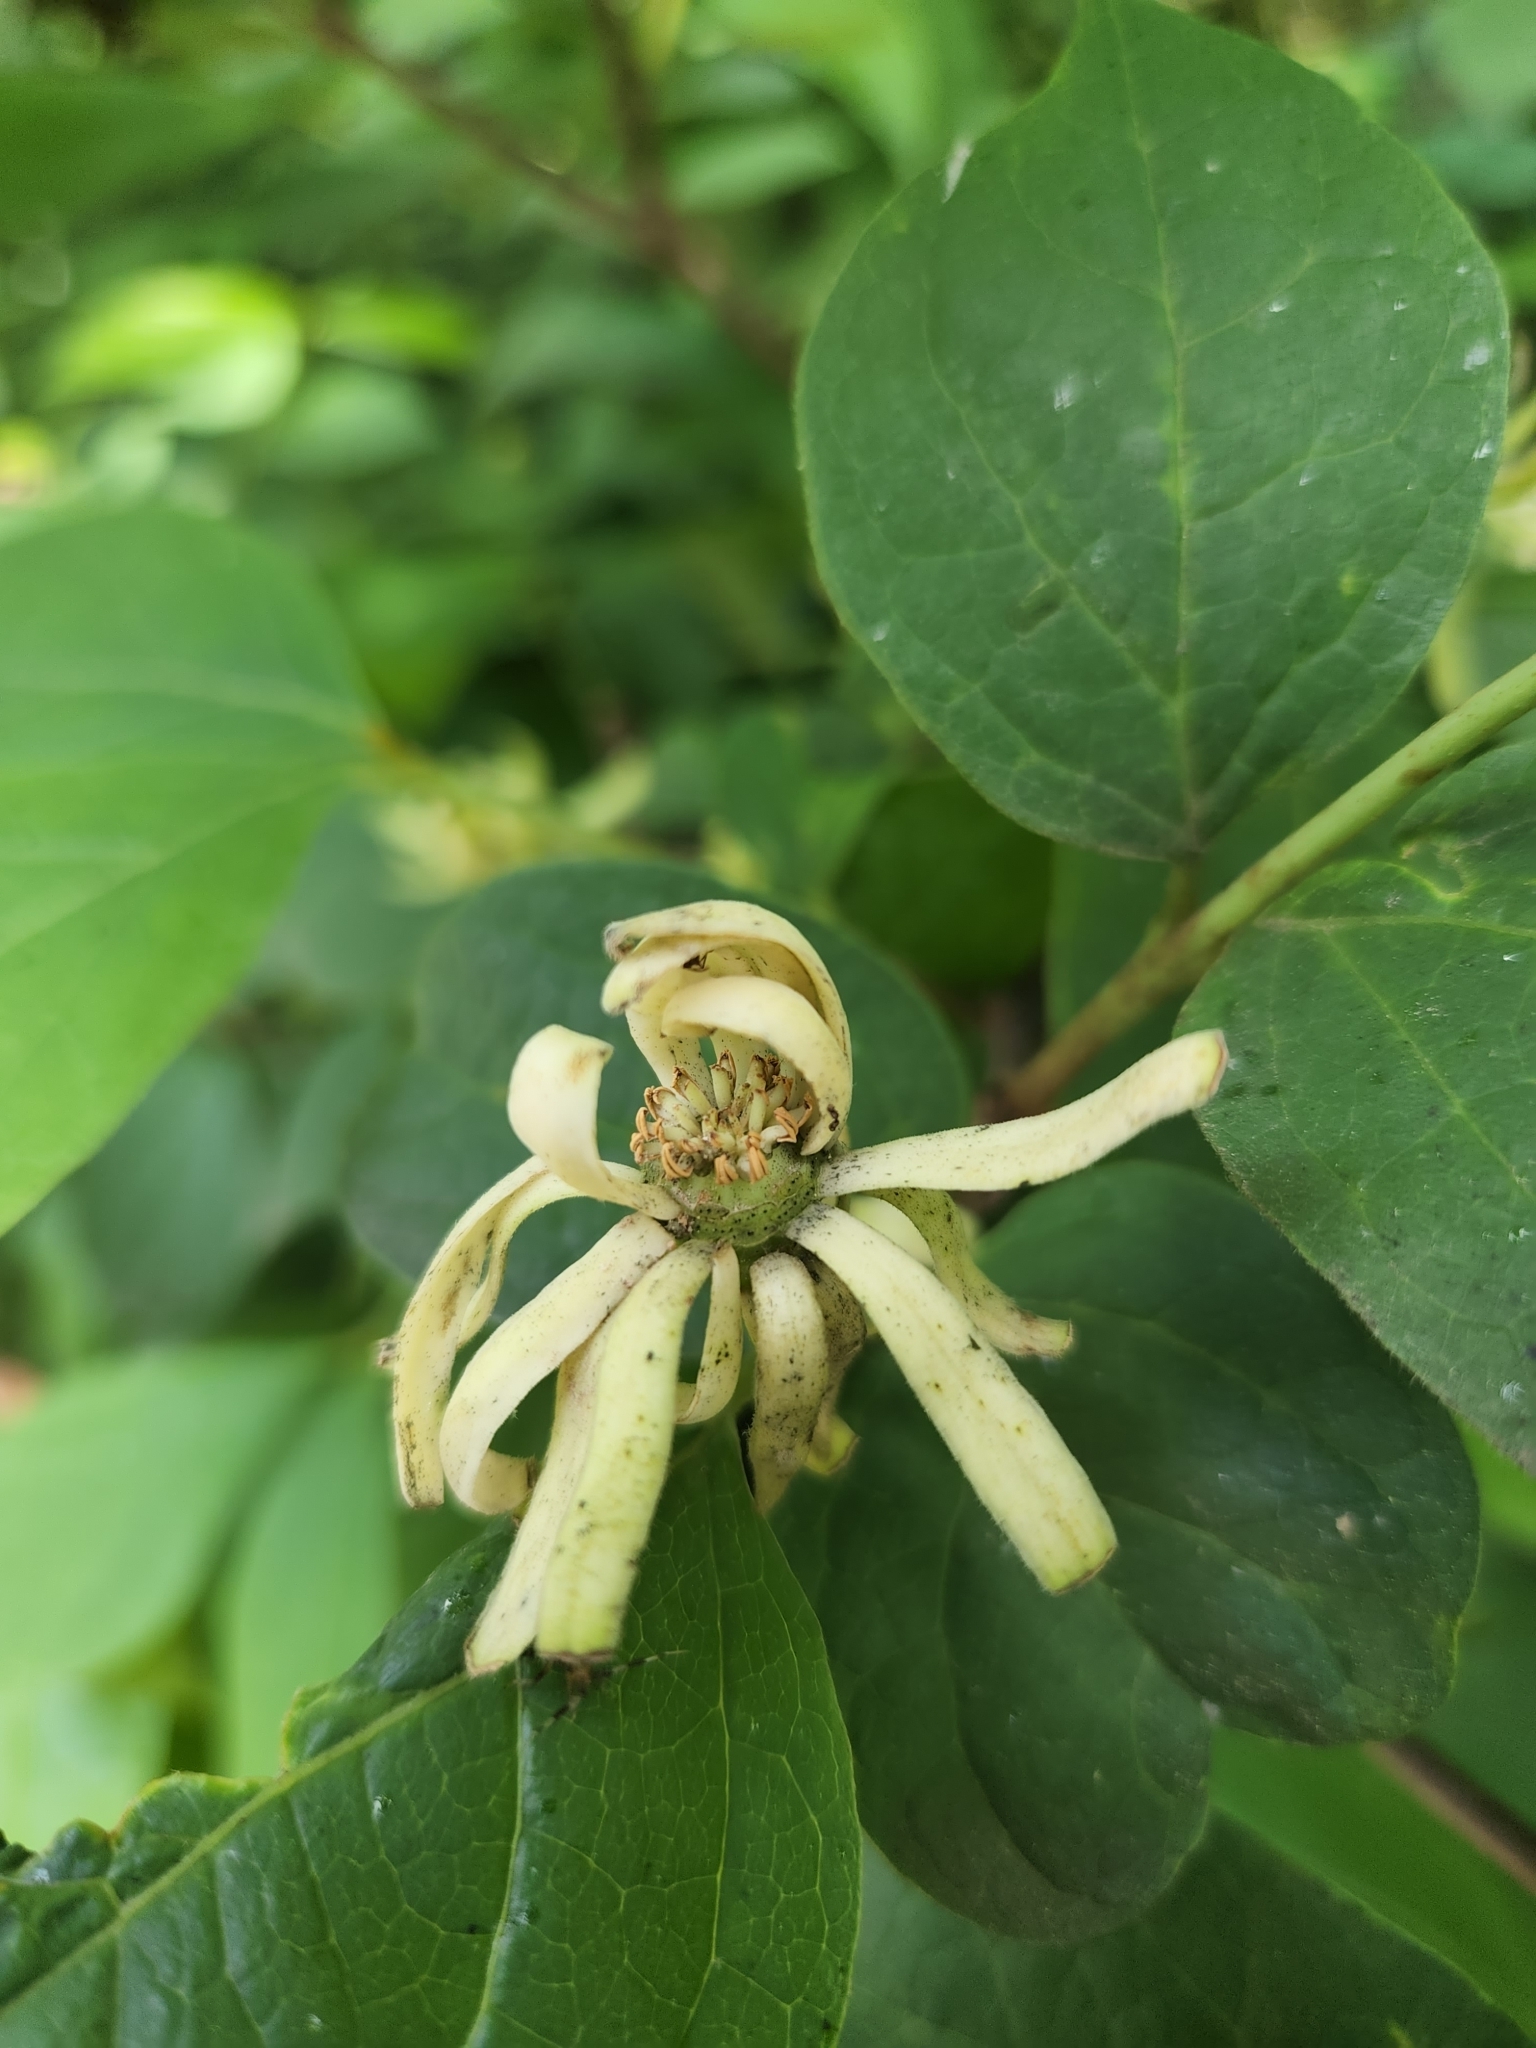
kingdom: Plantae
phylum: Tracheophyta
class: Magnoliopsida
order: Laurales
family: Calycanthaceae
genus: Calycanthus
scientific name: Calycanthus floridus
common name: Carolina-allspice
